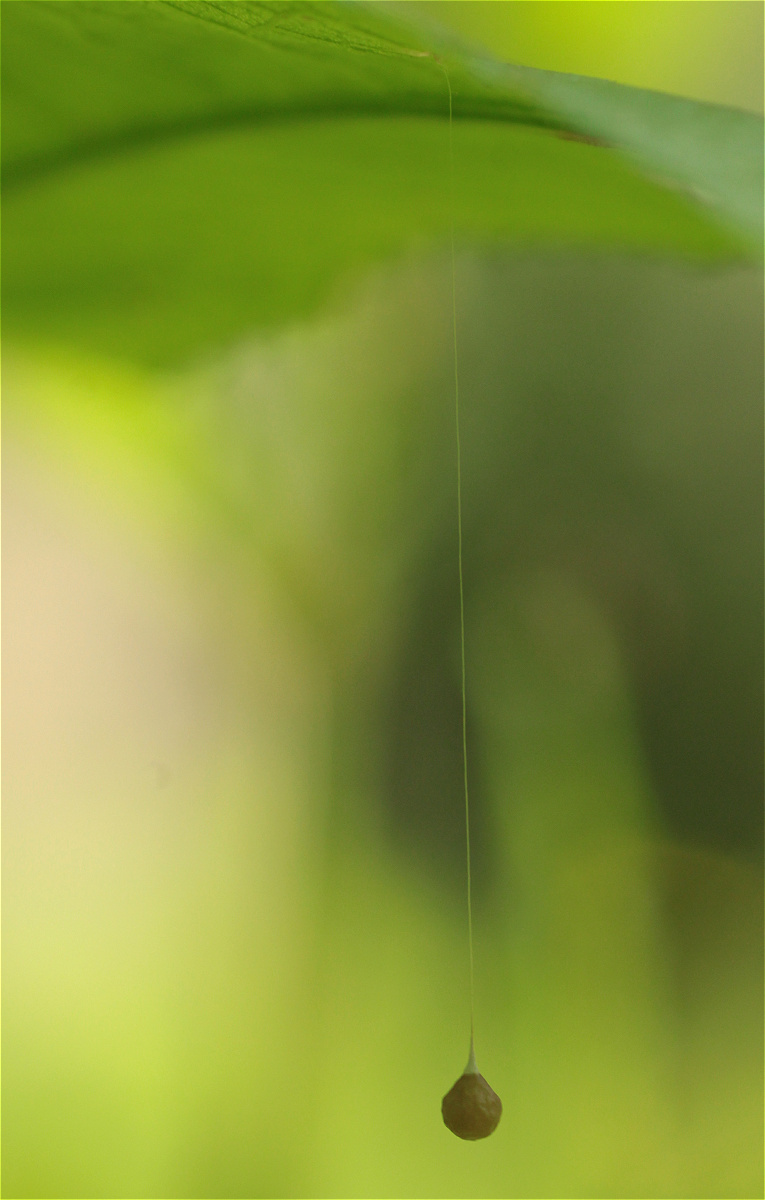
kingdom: Animalia
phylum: Arthropoda
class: Arachnida
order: Araneae
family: Theridiosomatidae
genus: Theridiosoma
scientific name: Theridiosoma gemmosum
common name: Ray spider
